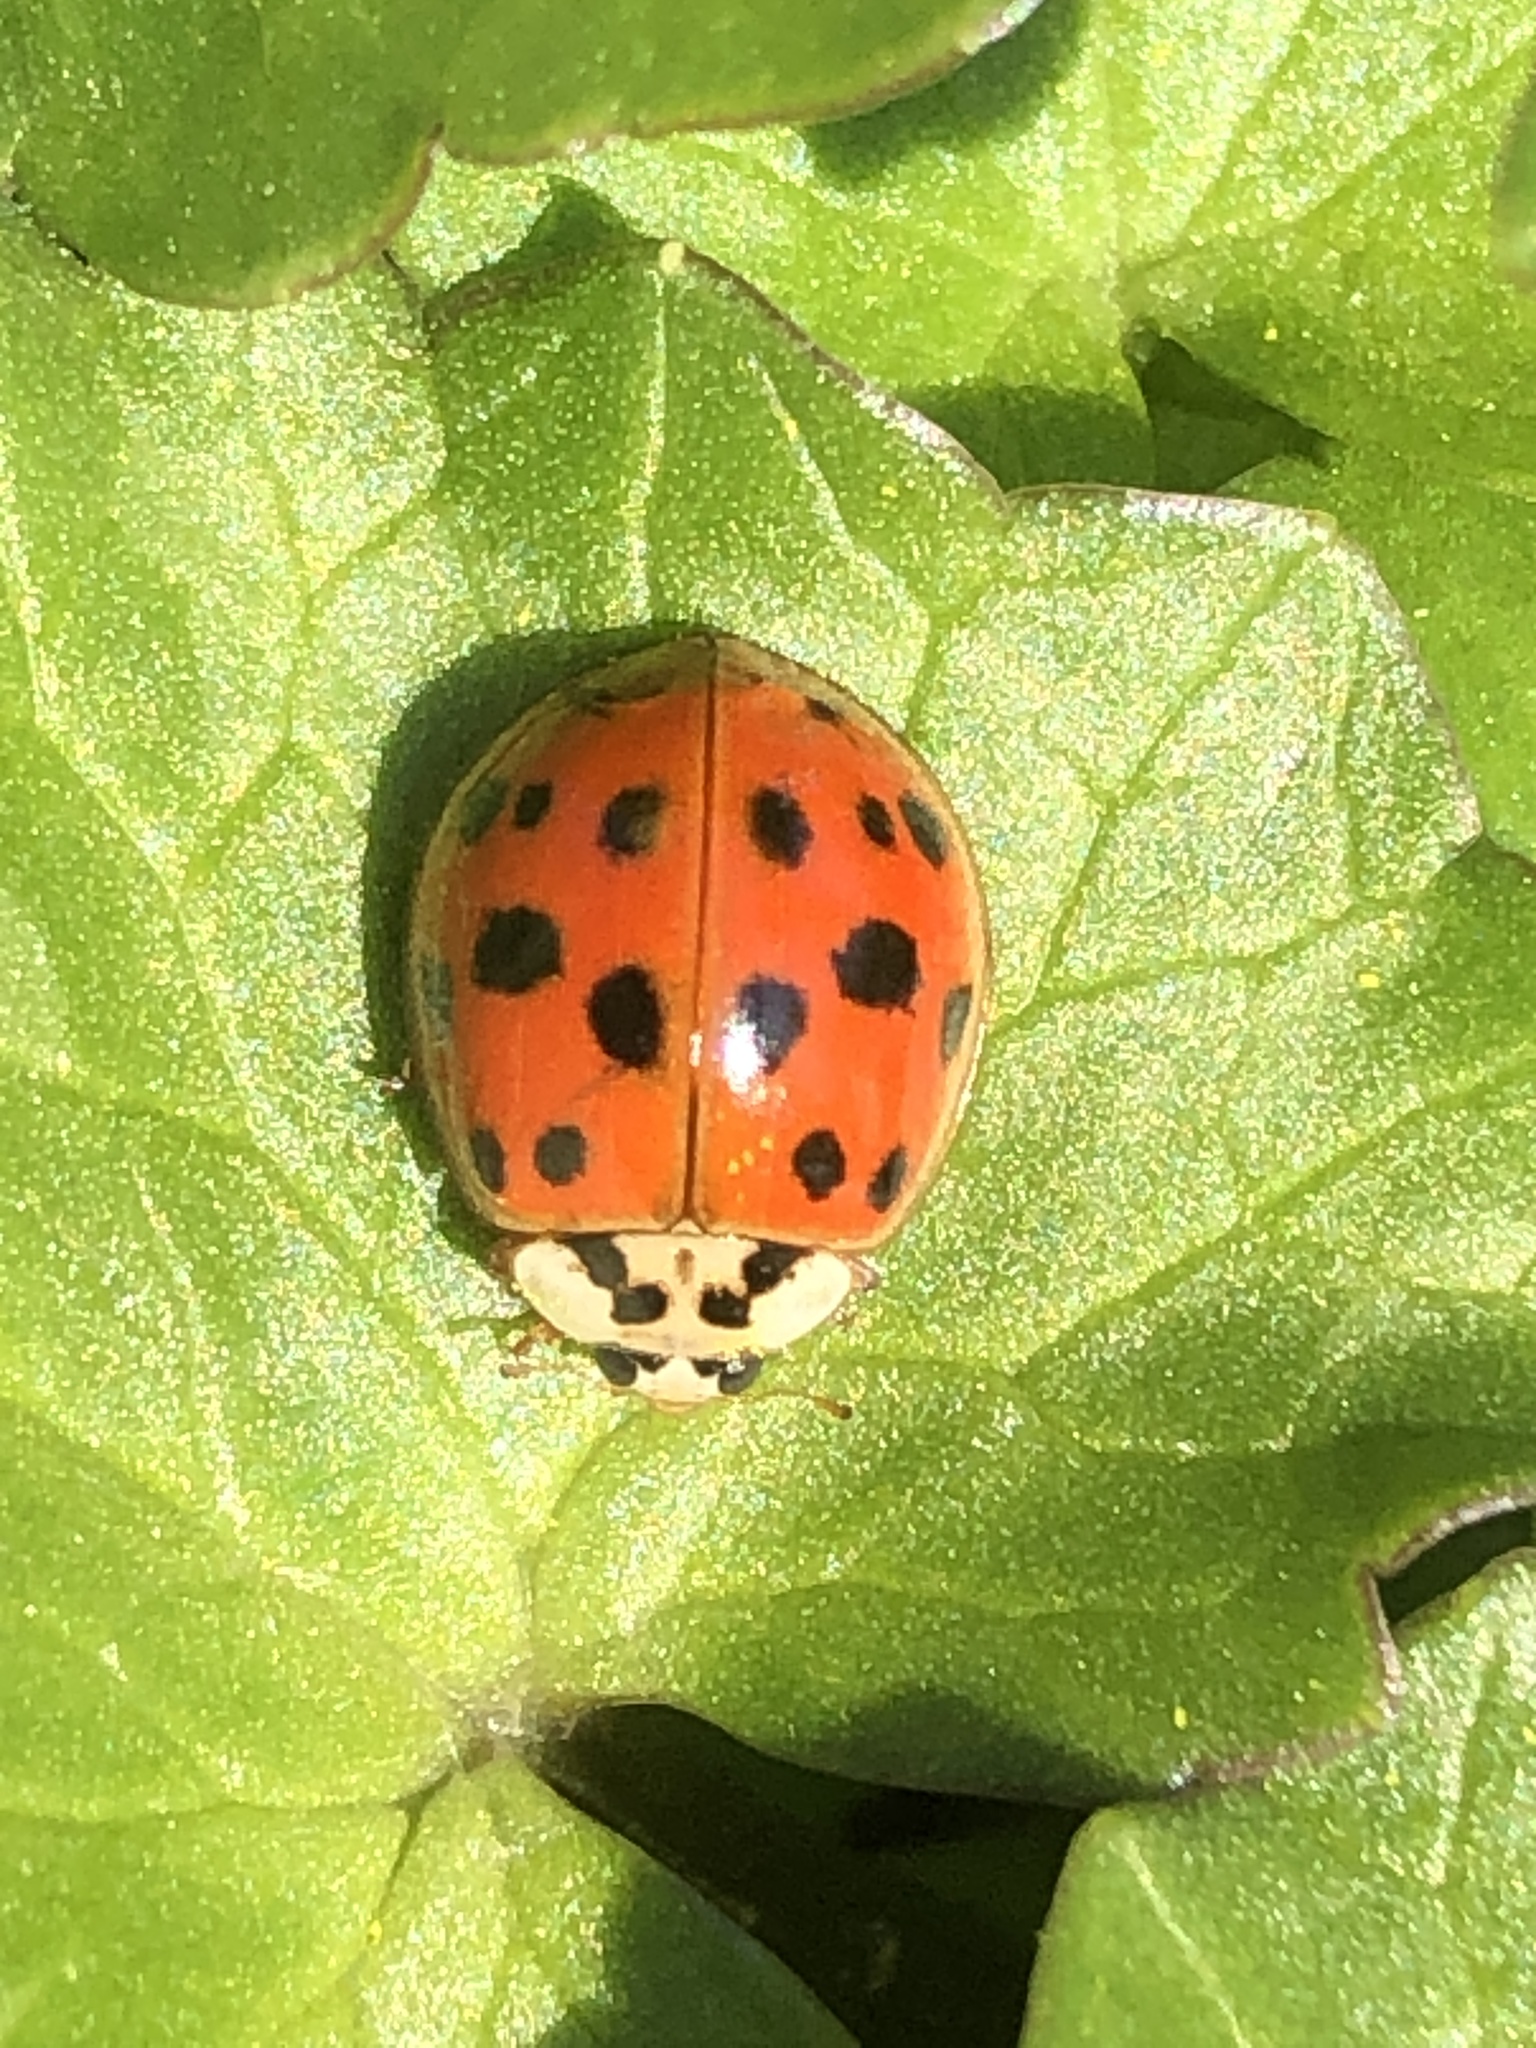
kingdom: Animalia
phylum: Arthropoda
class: Insecta
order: Coleoptera
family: Coccinellidae
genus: Harmonia
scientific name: Harmonia axyridis
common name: Harlequin ladybird
